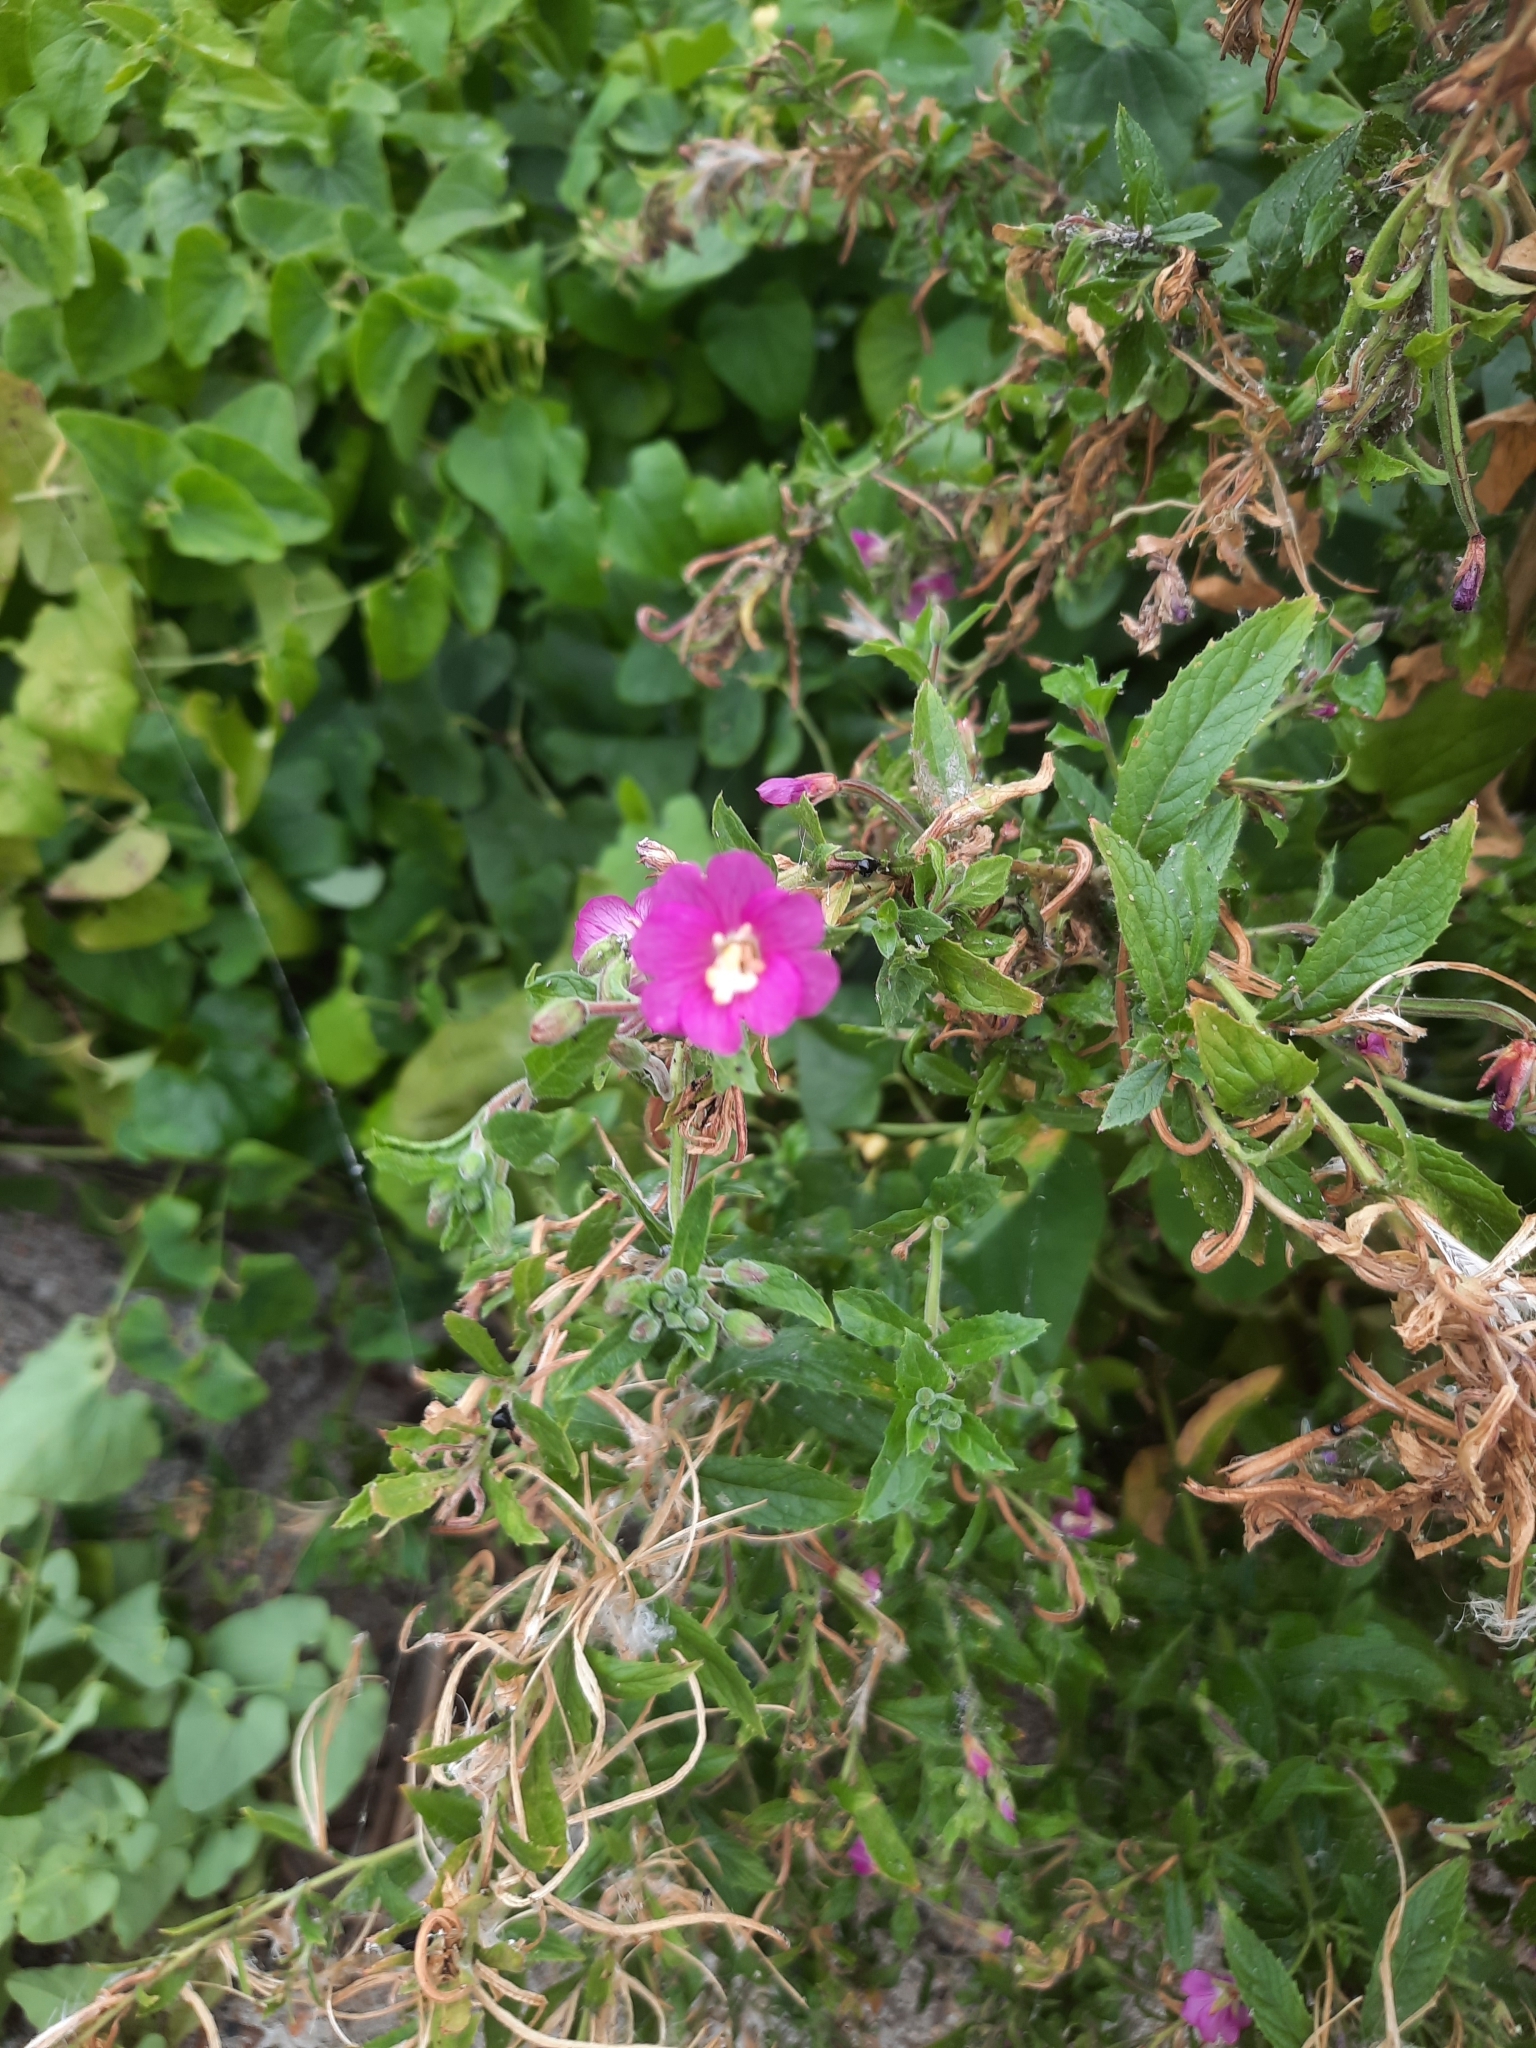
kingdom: Plantae
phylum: Tracheophyta
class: Magnoliopsida
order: Myrtales
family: Onagraceae
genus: Epilobium
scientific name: Epilobium hirsutum
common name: Great willowherb
